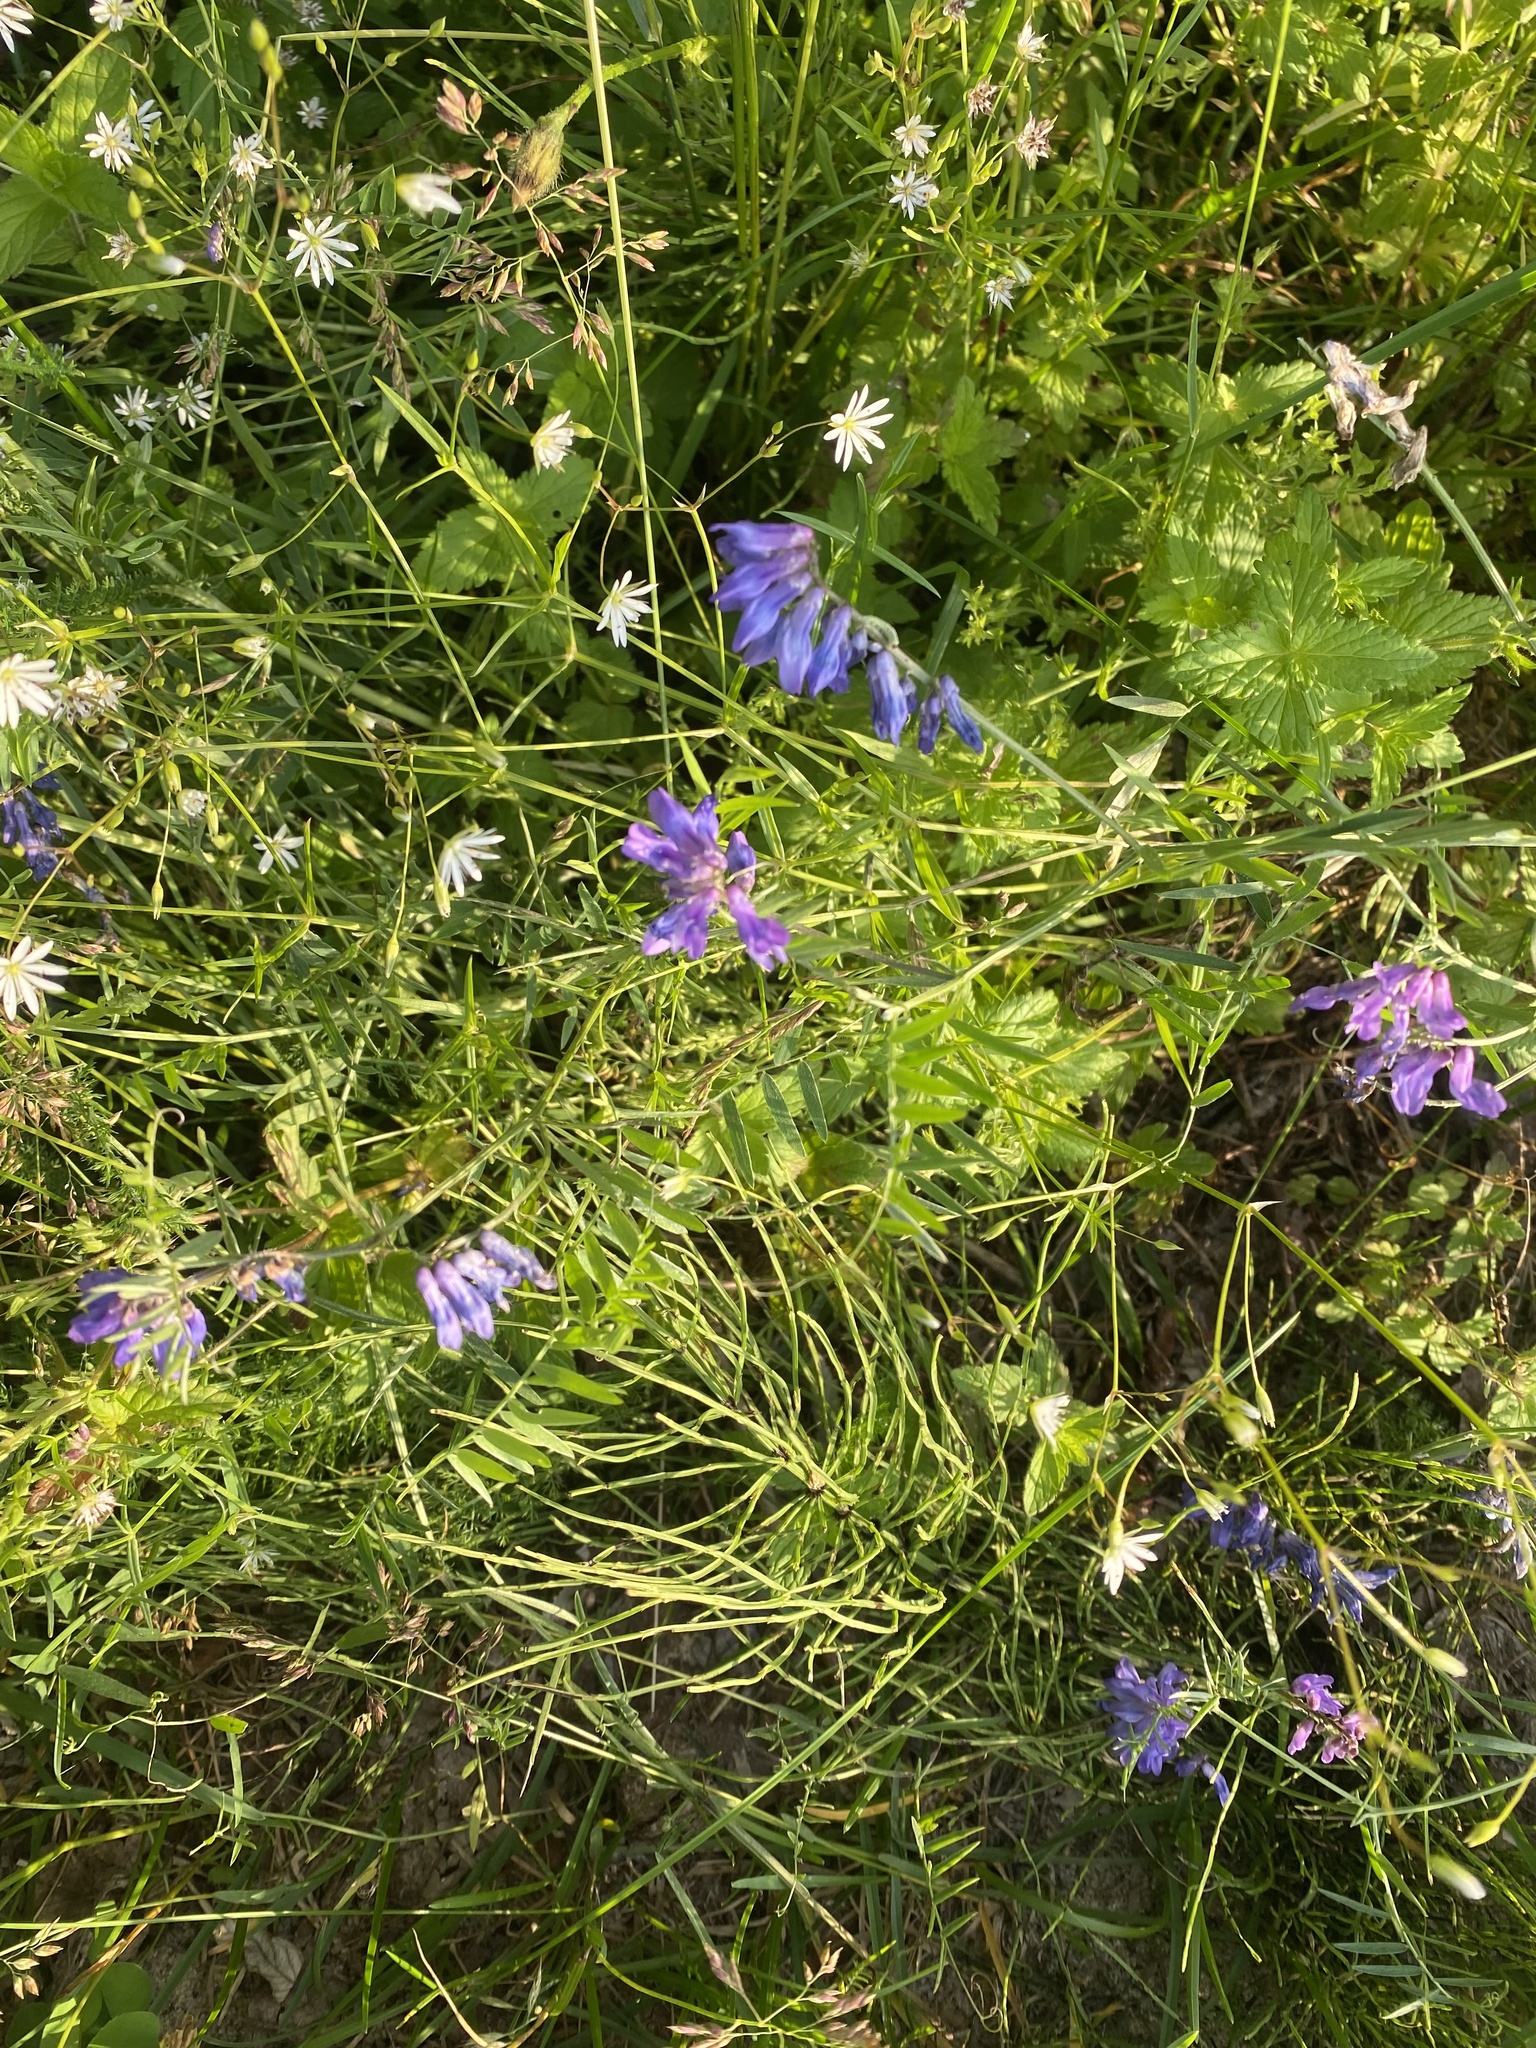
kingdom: Plantae
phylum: Tracheophyta
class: Magnoliopsida
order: Fabales
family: Fabaceae
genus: Vicia
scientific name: Vicia cracca
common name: Bird vetch
